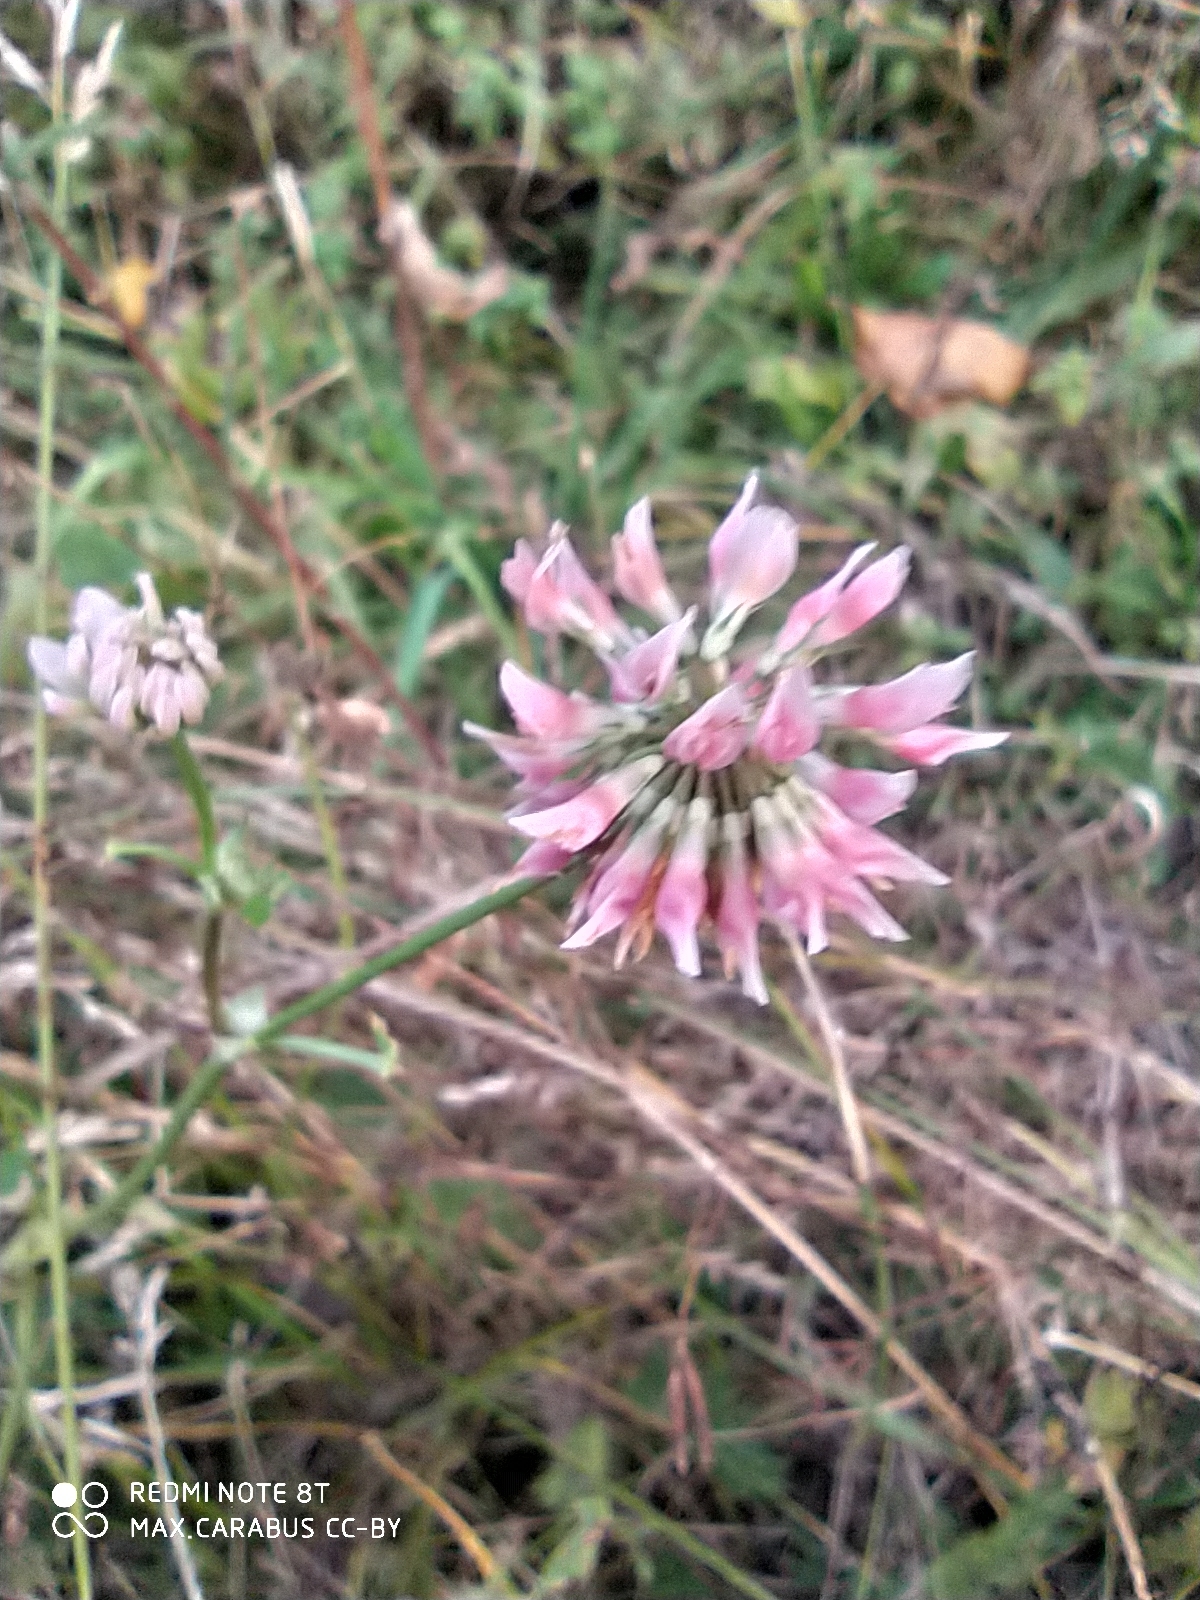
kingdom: Plantae
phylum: Tracheophyta
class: Magnoliopsida
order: Fabales
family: Fabaceae
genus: Trifolium
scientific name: Trifolium hybridum
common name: Alsike clover
